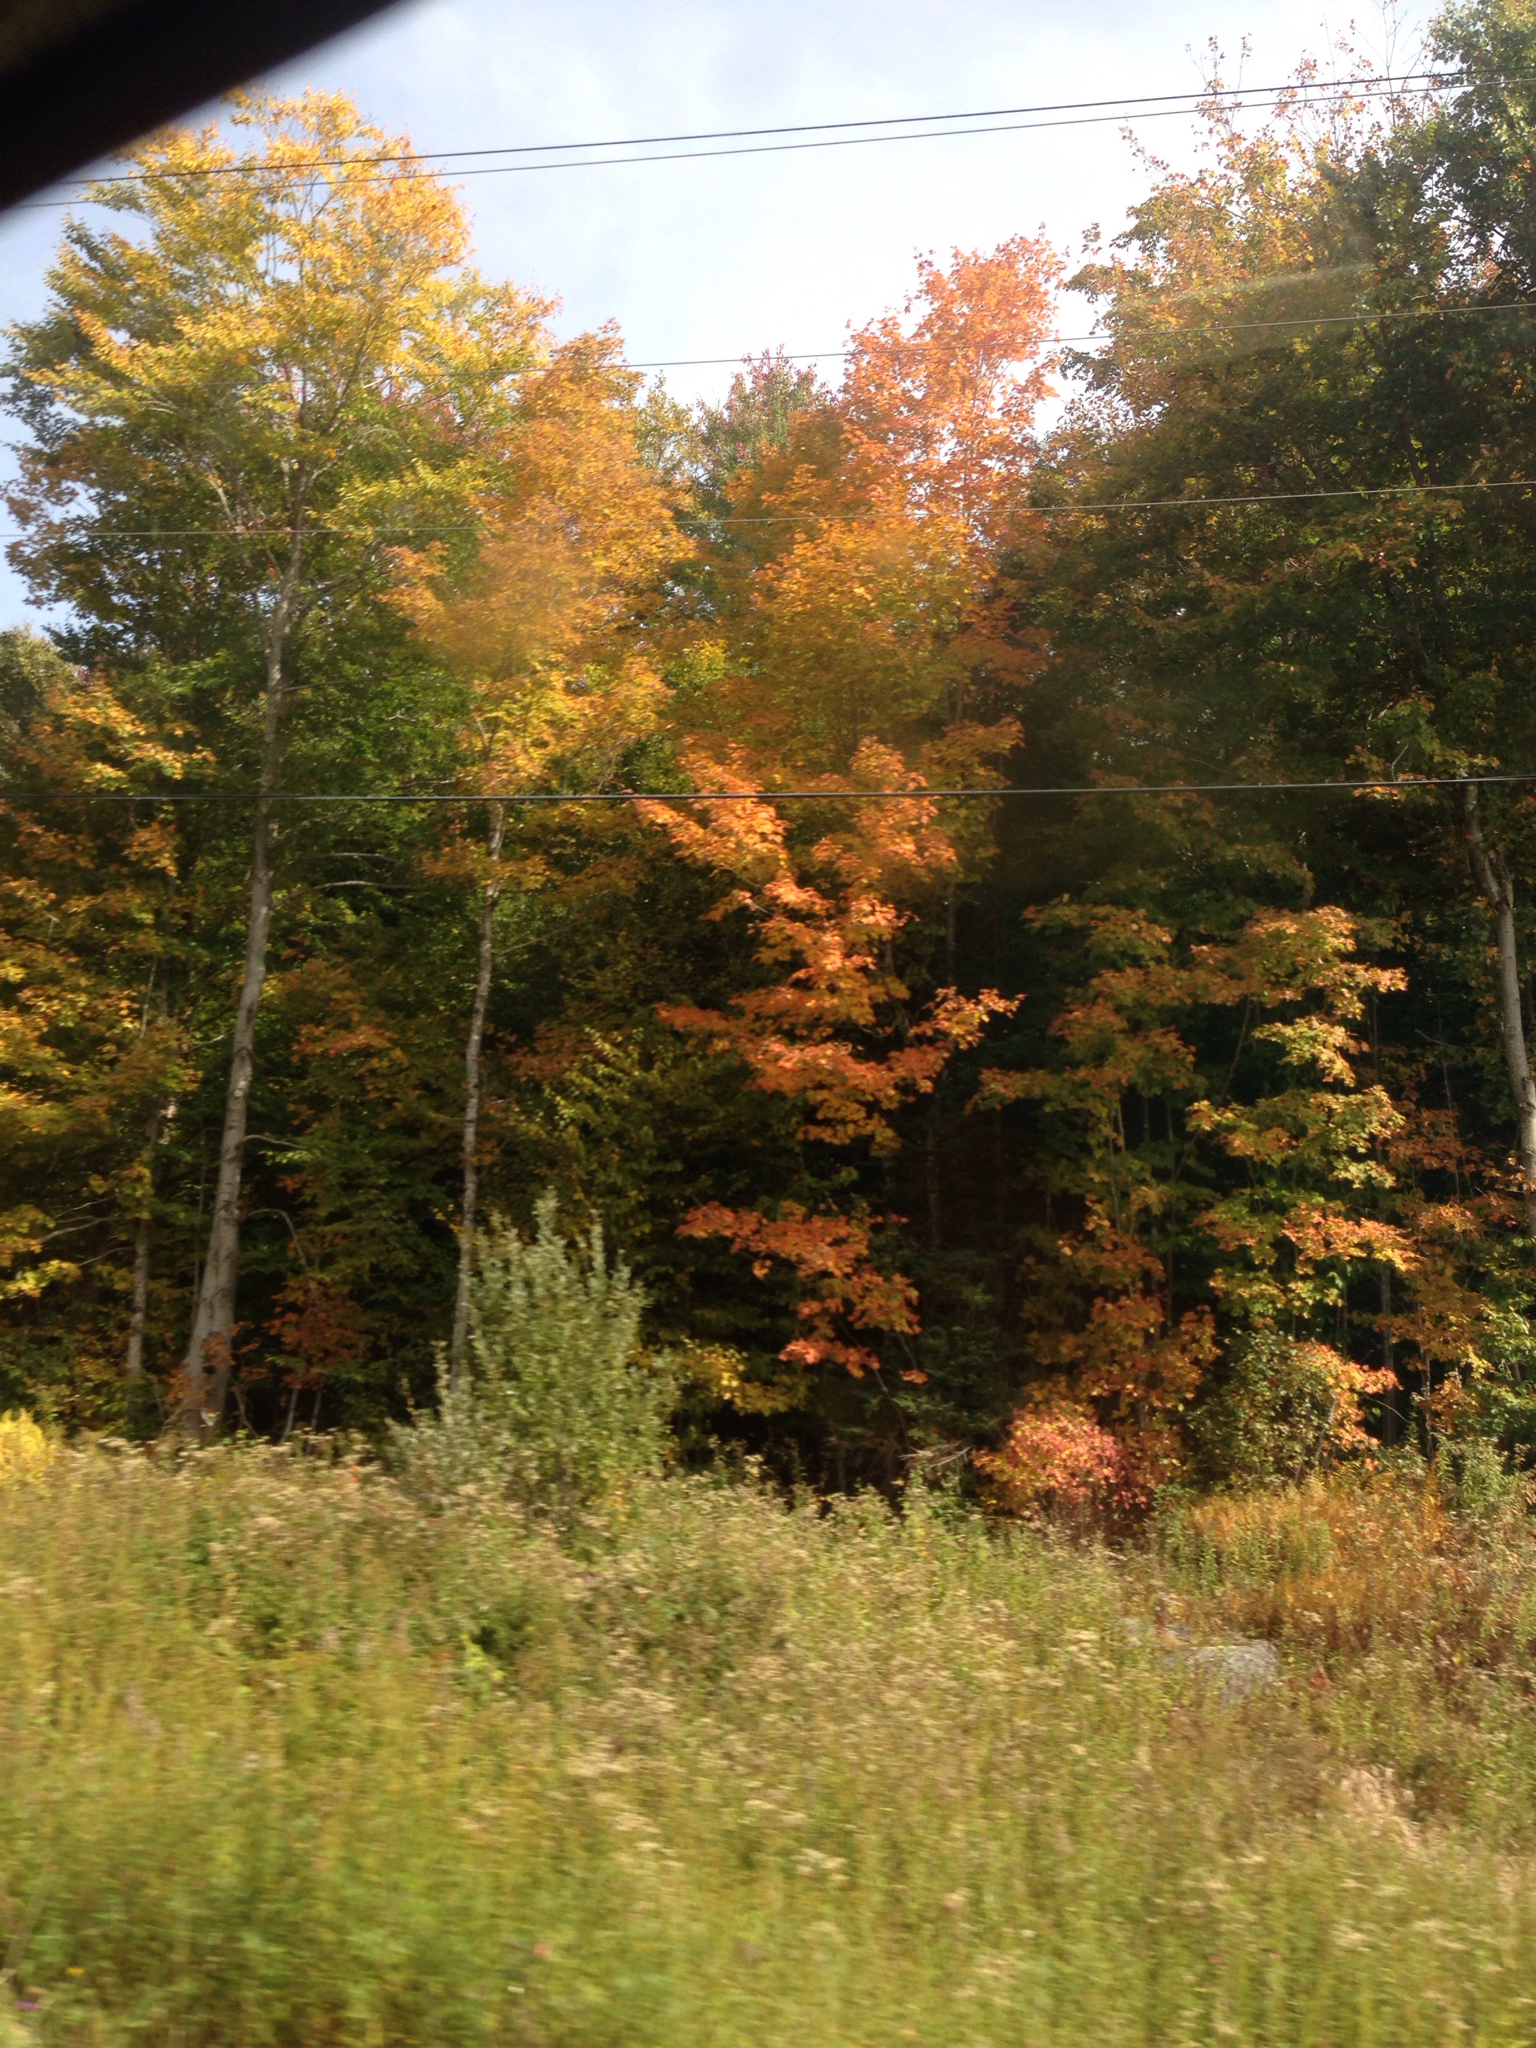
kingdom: Plantae
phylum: Tracheophyta
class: Magnoliopsida
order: Sapindales
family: Sapindaceae
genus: Acer
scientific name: Acer saccharum
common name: Sugar maple
